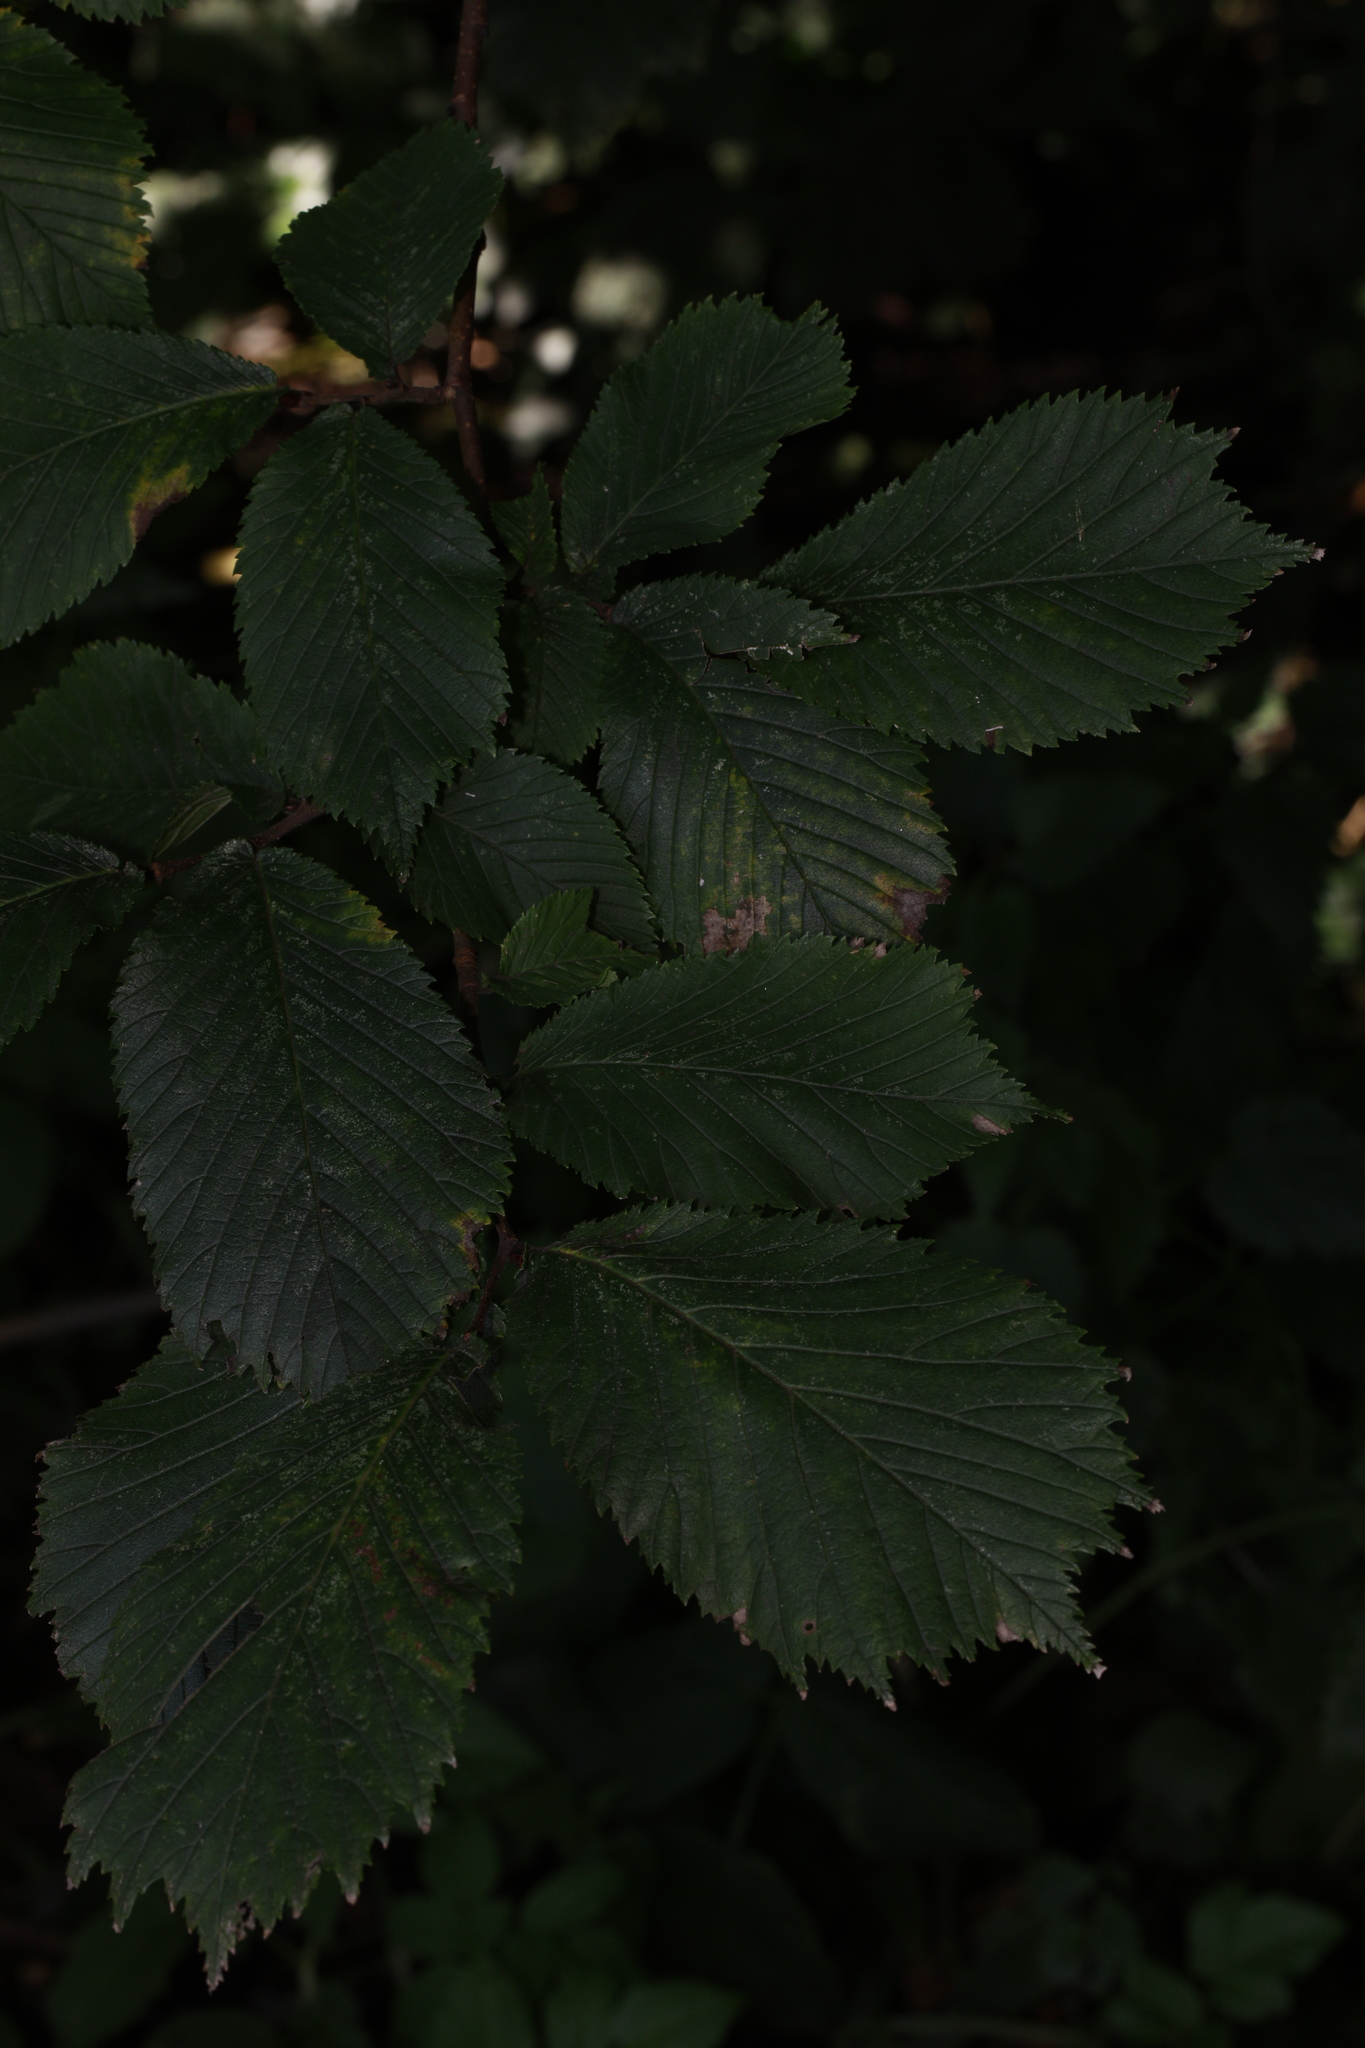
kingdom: Plantae
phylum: Tracheophyta
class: Magnoliopsida
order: Rosales
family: Ulmaceae
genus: Ulmus
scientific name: Ulmus glabra
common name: Wych elm
